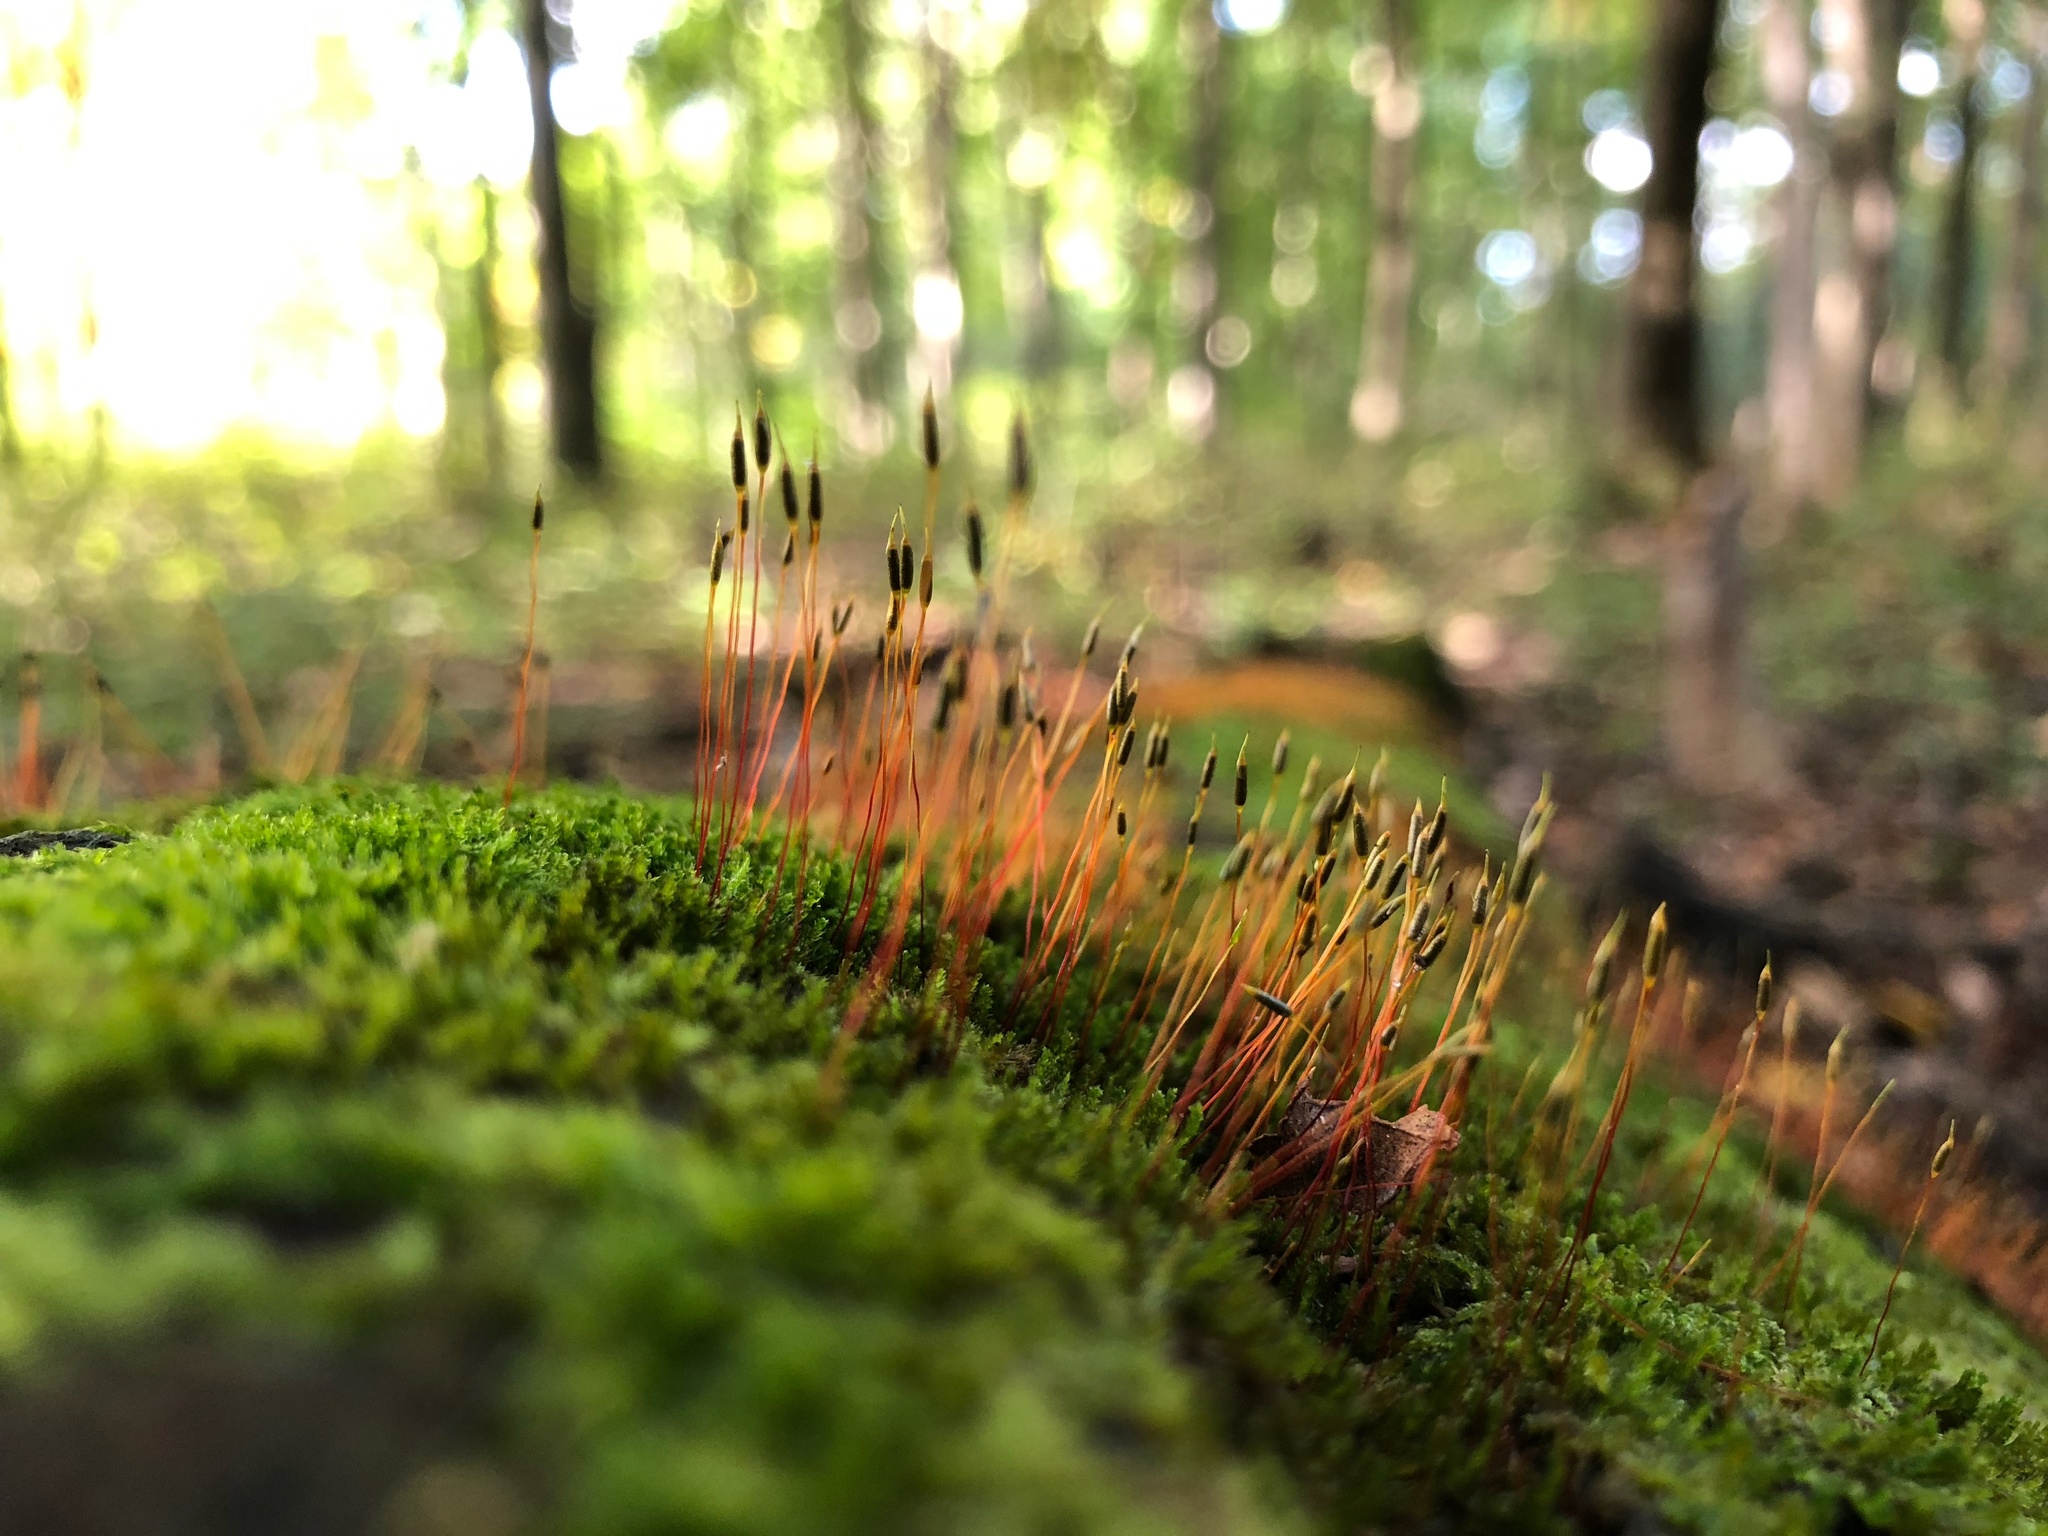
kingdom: Plantae
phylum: Bryophyta
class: Bryopsida
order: Dicranales
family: Ditrichaceae
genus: Ceratodon
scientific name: Ceratodon purpureus
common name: Redshank
